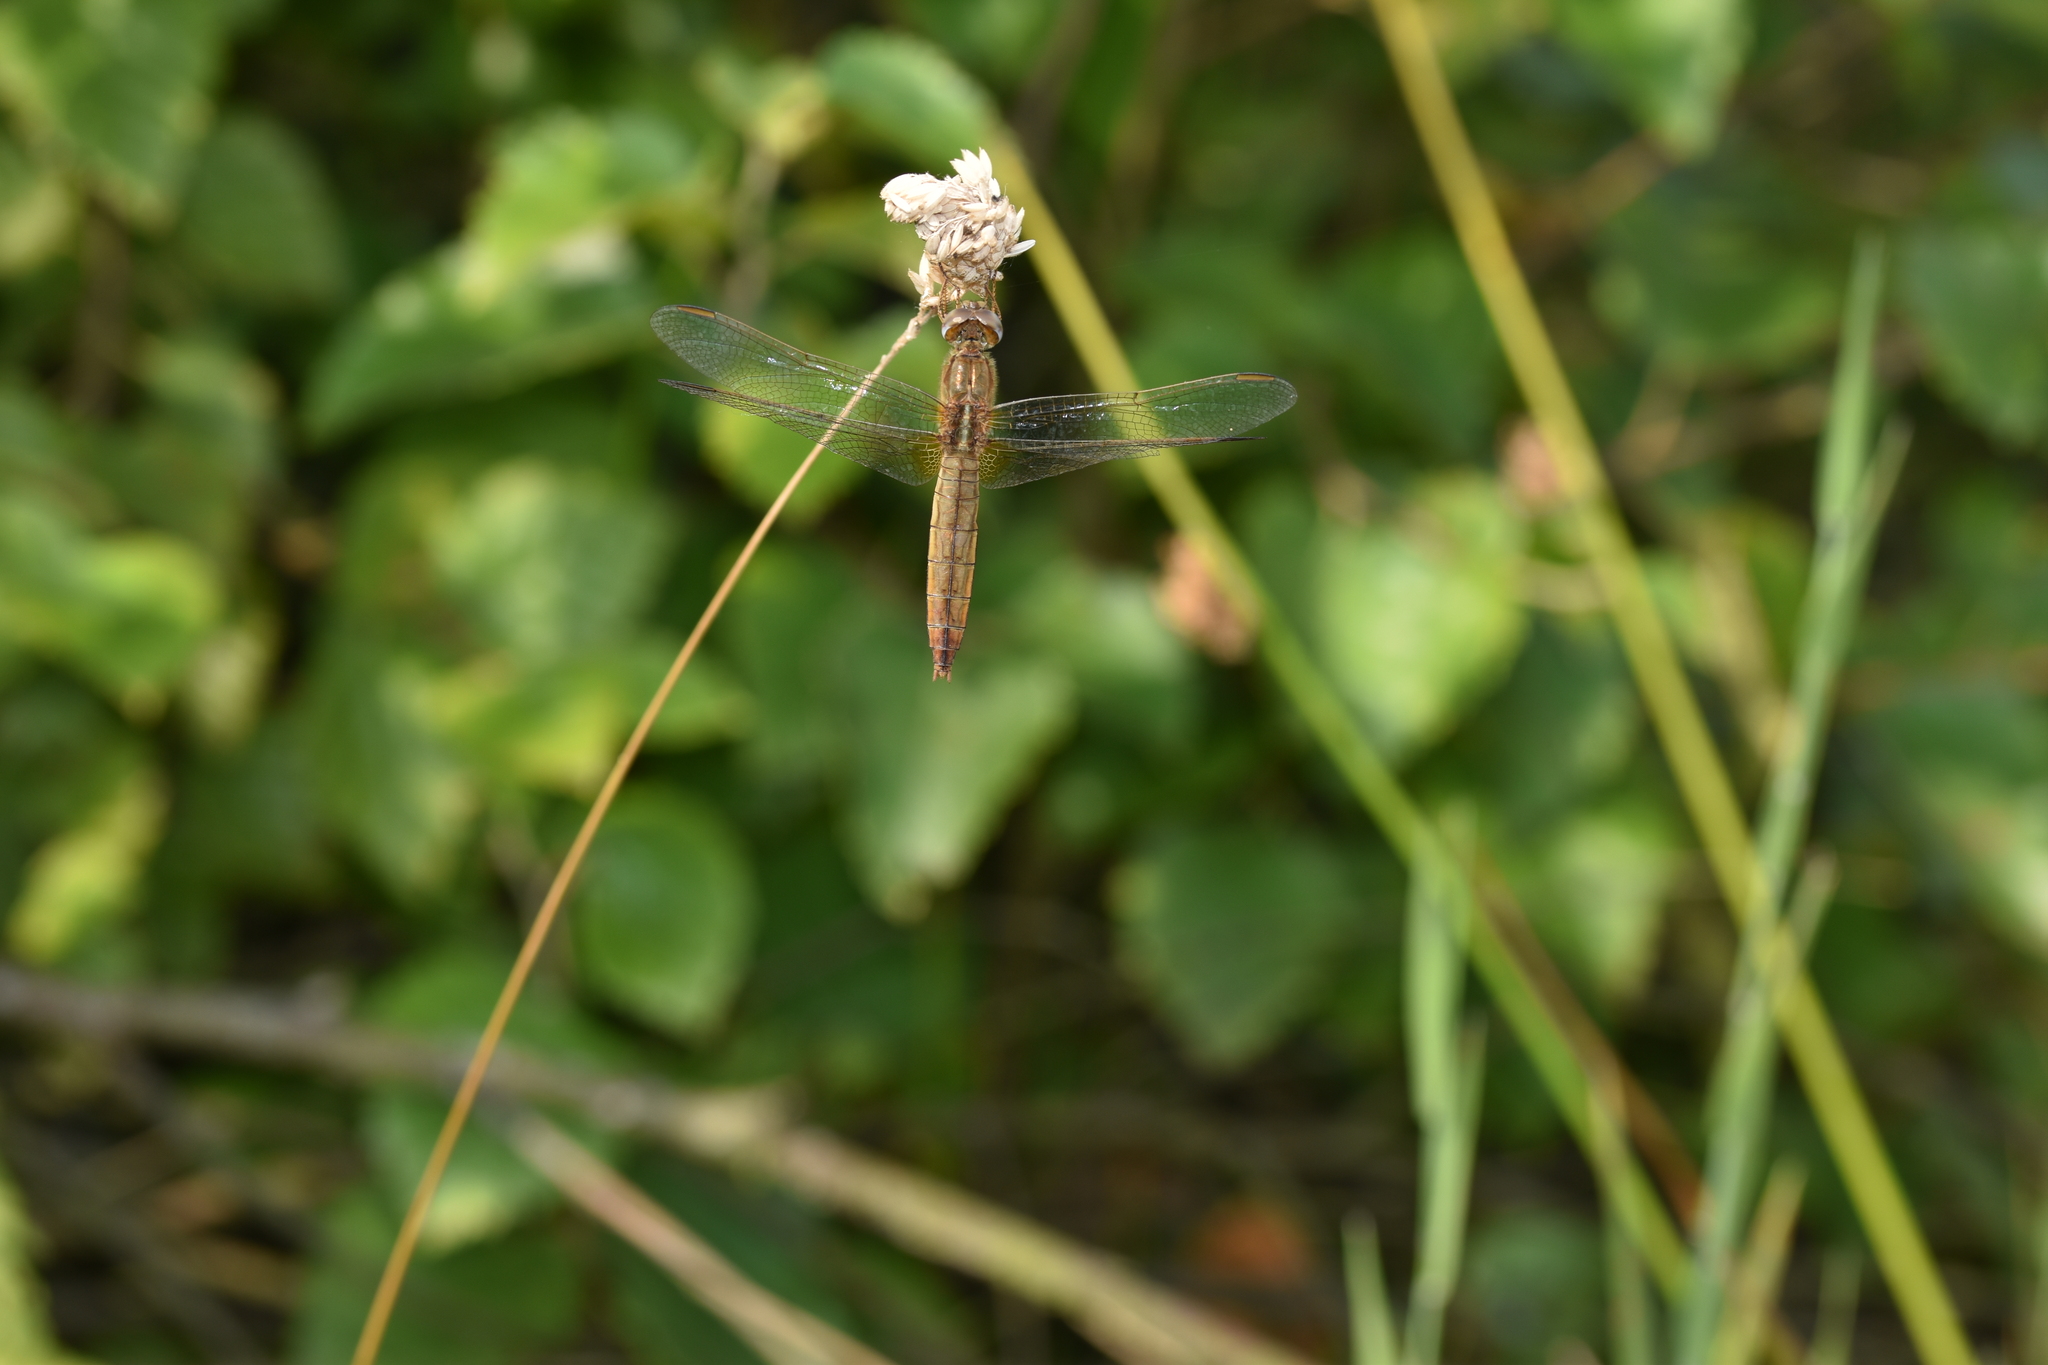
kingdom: Animalia
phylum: Arthropoda
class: Insecta
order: Odonata
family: Libellulidae
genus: Crocothemis
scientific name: Crocothemis erythraea
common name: Scarlet dragonfly
